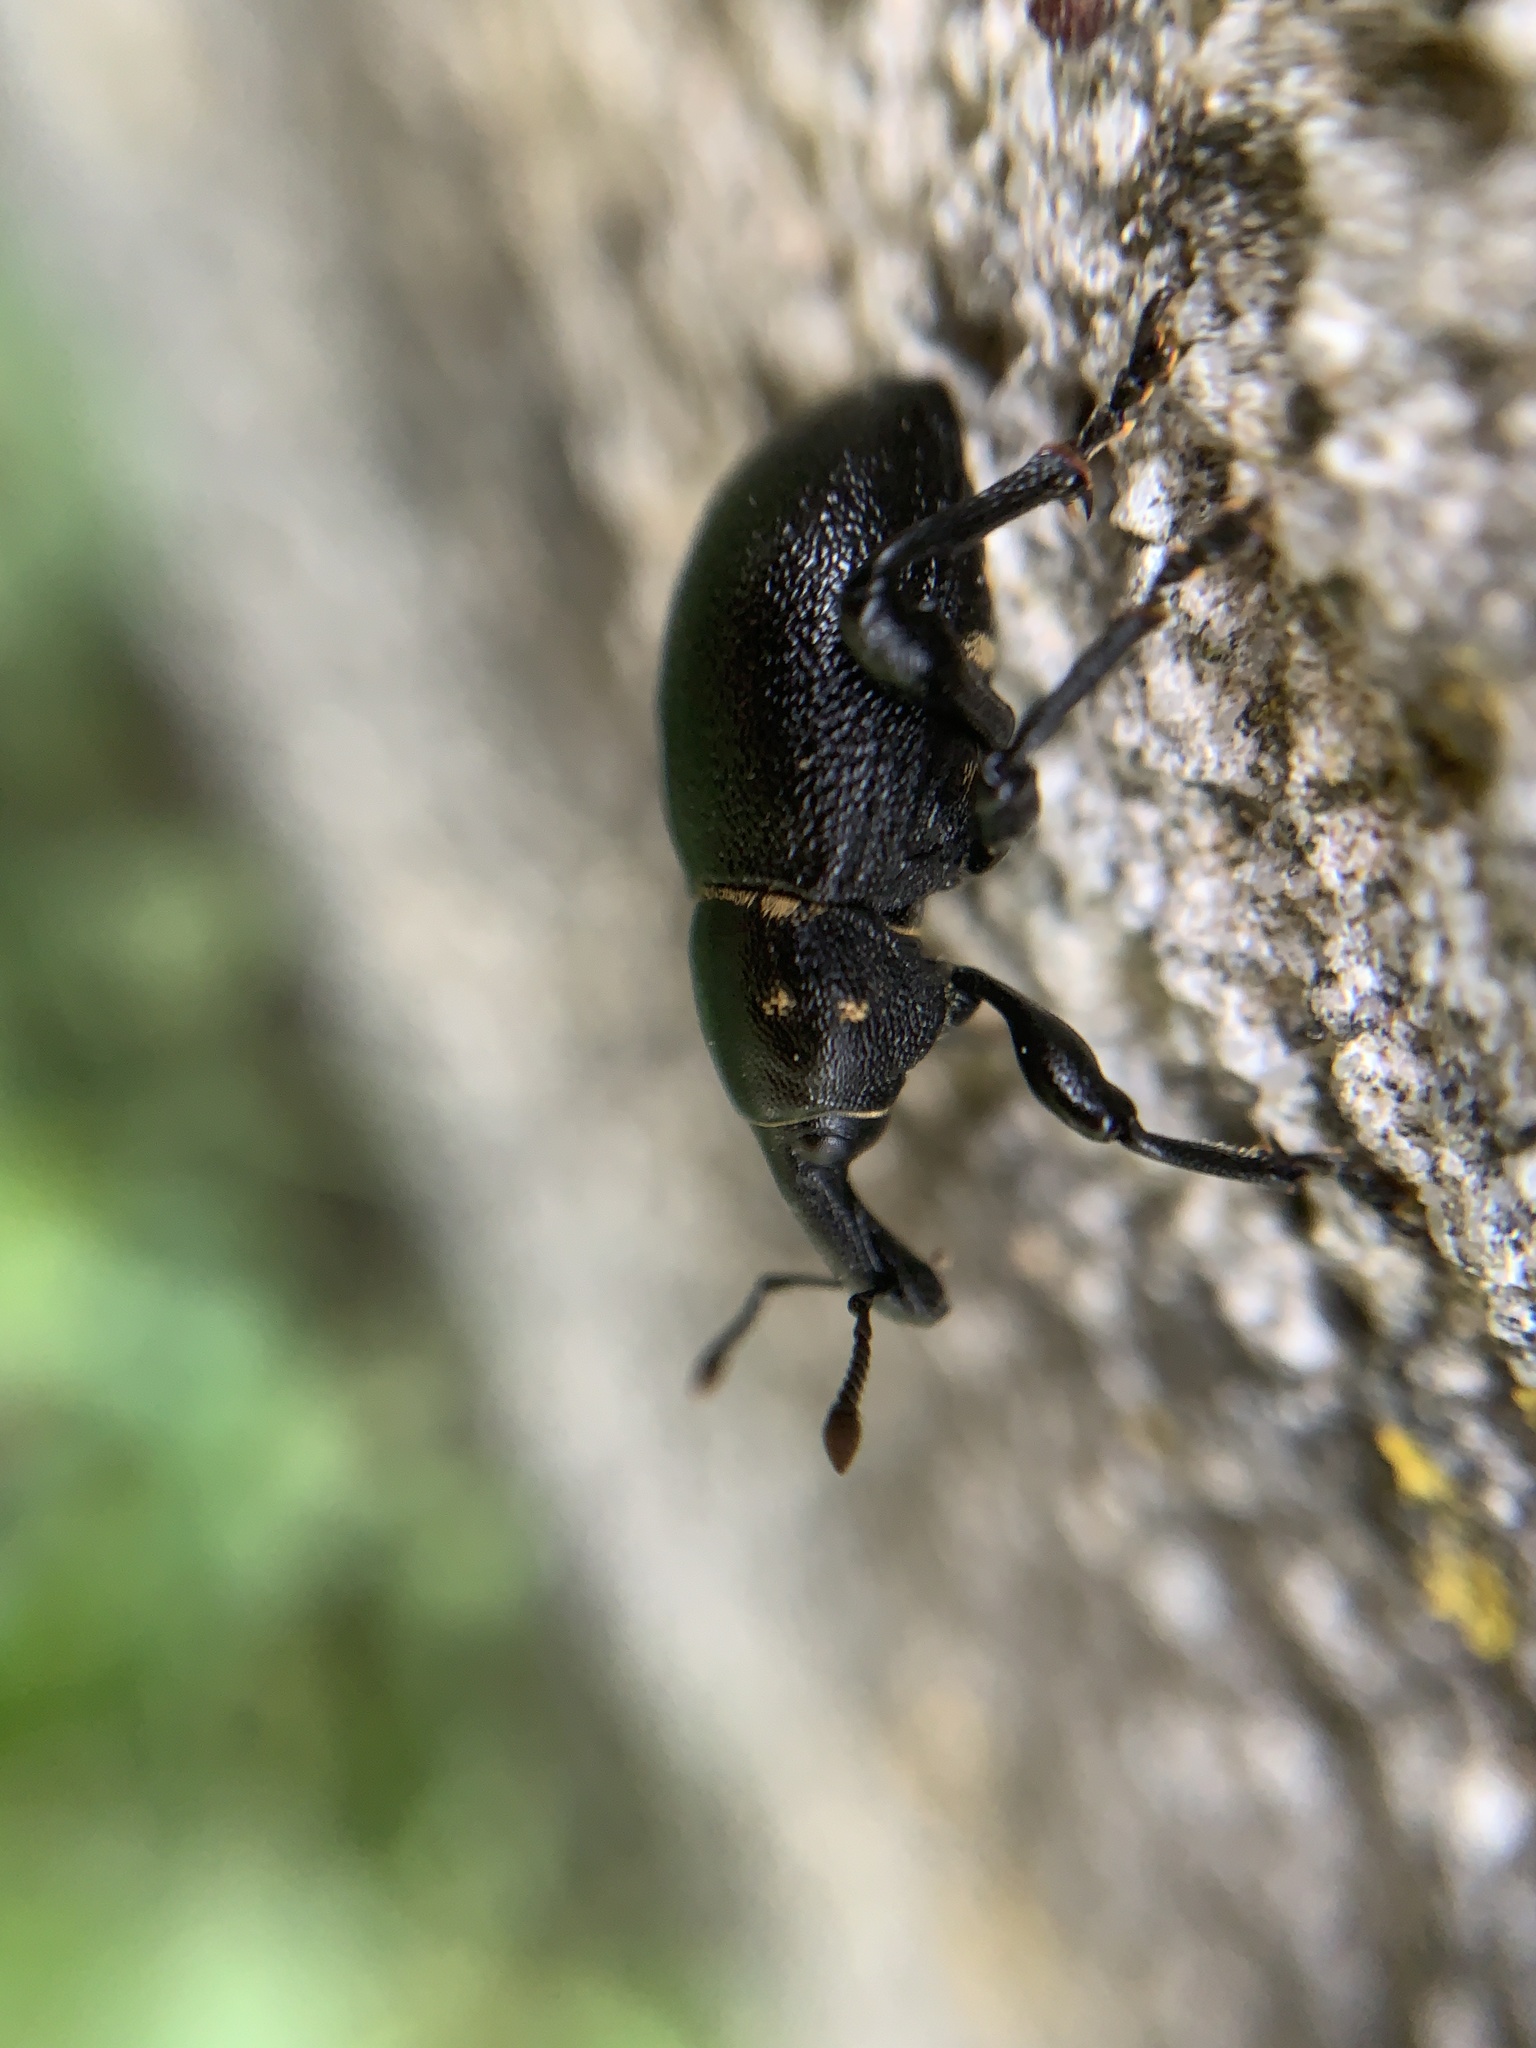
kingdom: Animalia
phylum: Arthropoda
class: Insecta
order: Coleoptera
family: Curculionidae
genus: Liparus
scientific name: Liparus coronatus
